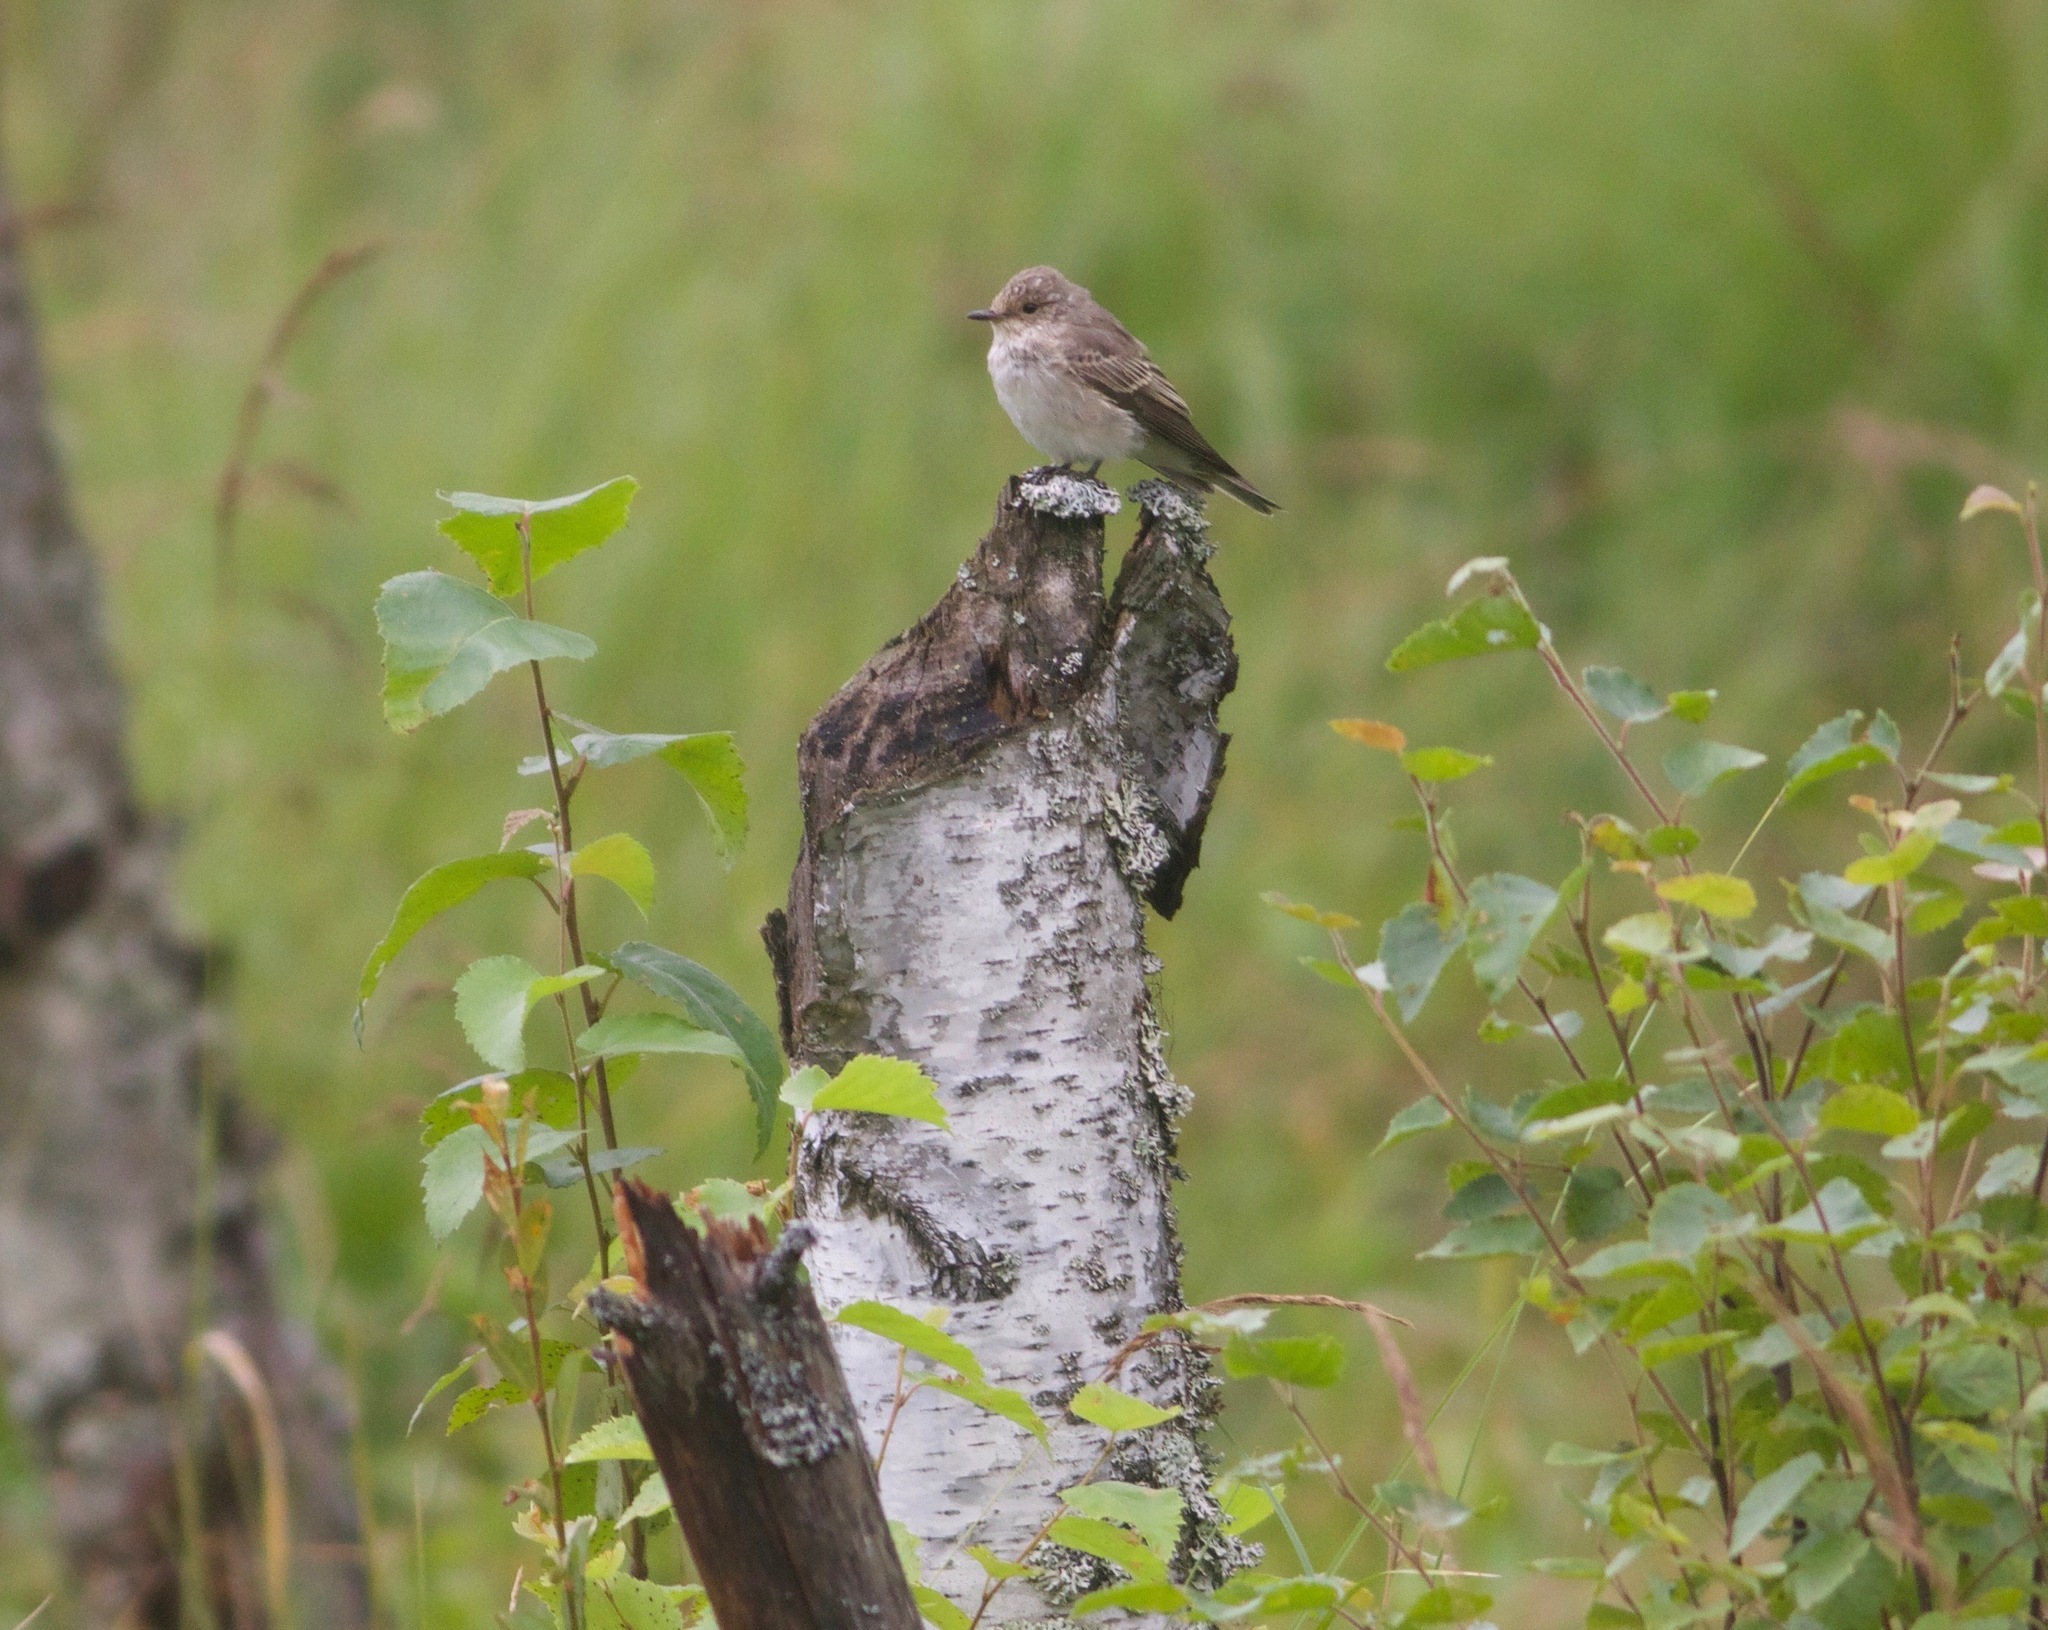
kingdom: Animalia
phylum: Chordata
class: Aves
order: Passeriformes
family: Muscicapidae
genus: Muscicapa
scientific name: Muscicapa striata
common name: Spotted flycatcher
